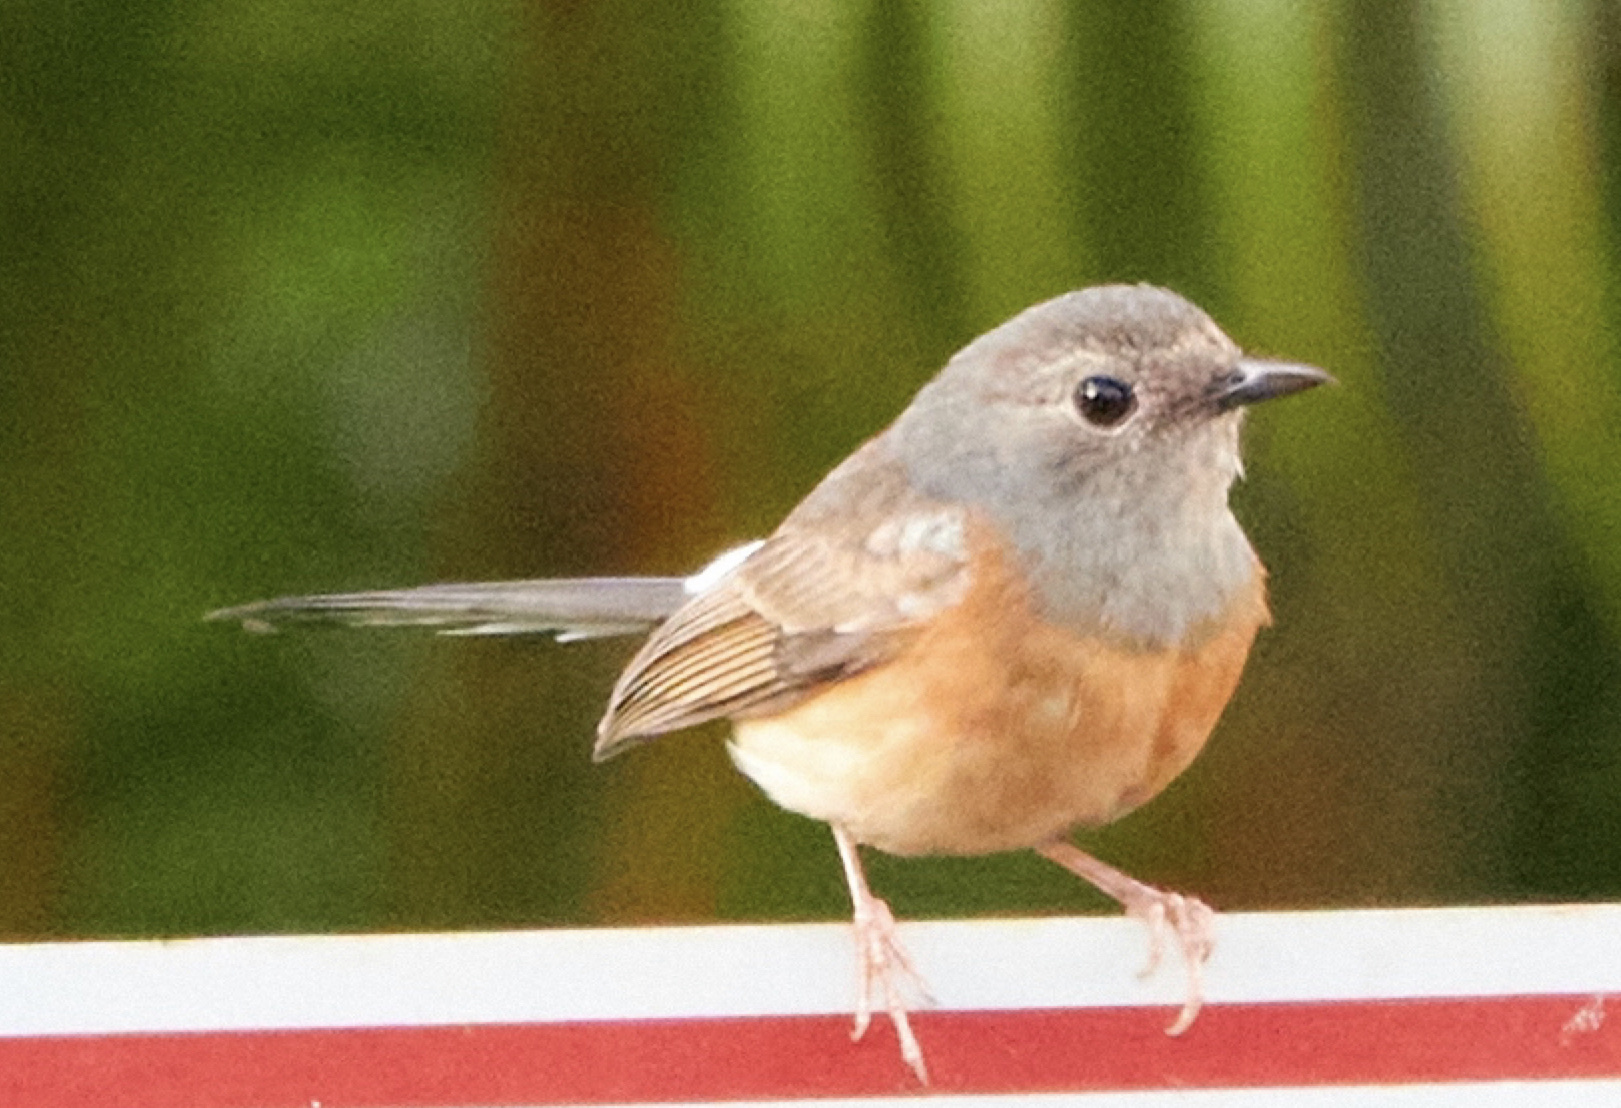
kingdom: Animalia
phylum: Chordata
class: Aves
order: Passeriformes
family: Muscicapidae
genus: Copsychus
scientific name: Copsychus malabaricus
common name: White-rumped shama
